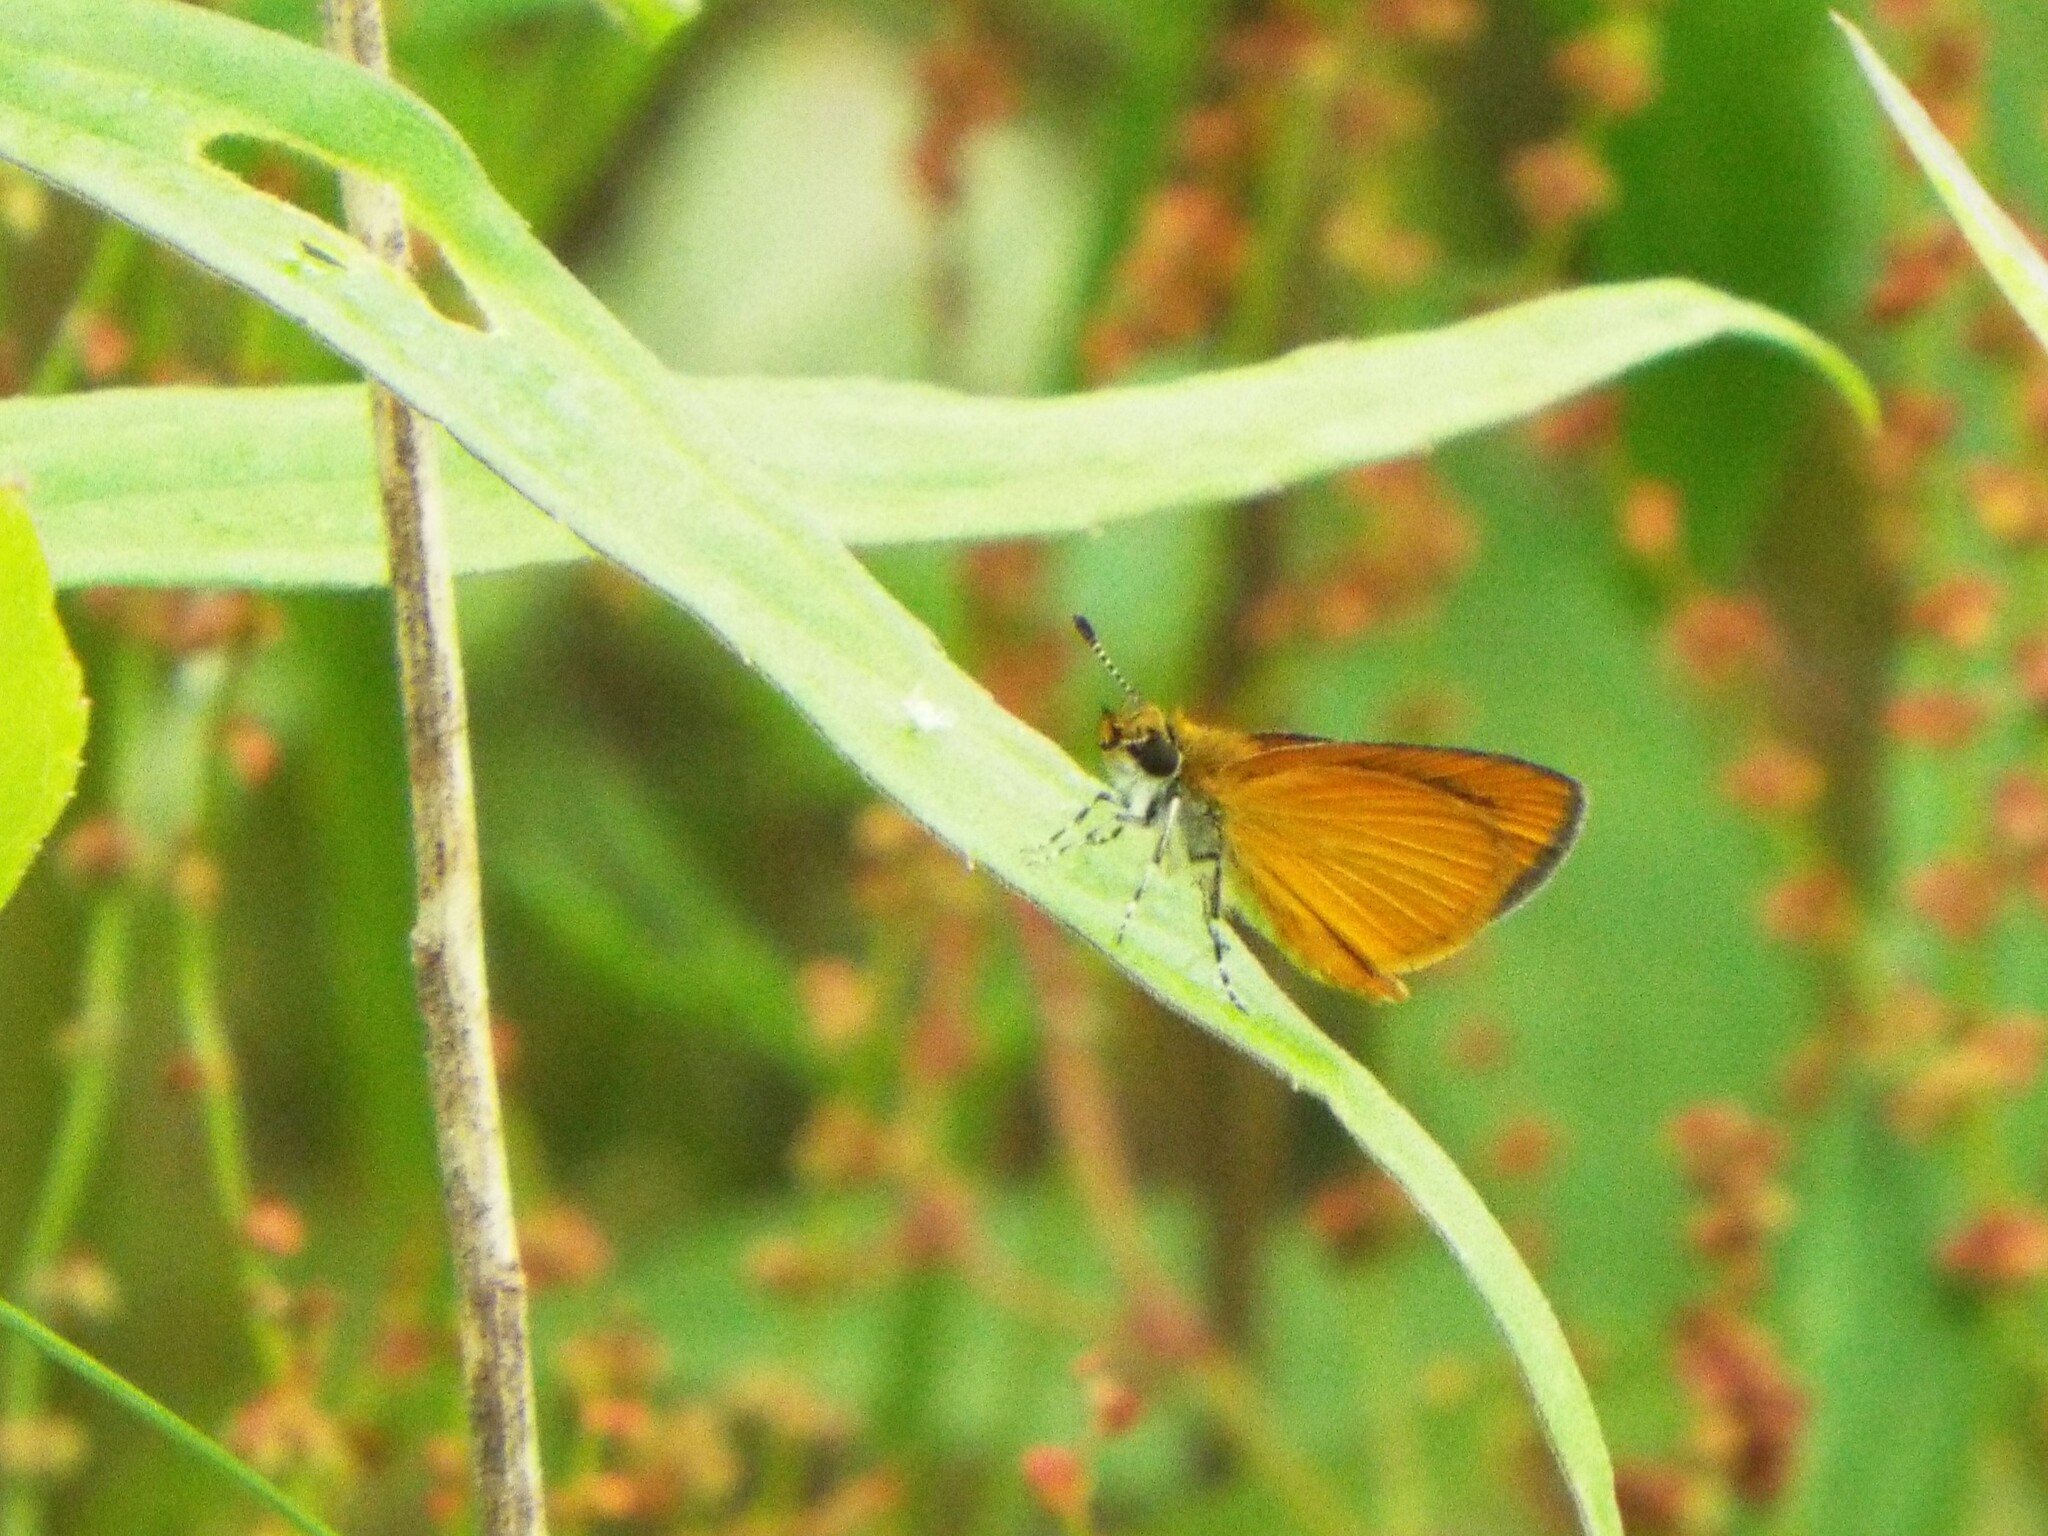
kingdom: Animalia
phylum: Arthropoda
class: Insecta
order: Lepidoptera
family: Hesperiidae
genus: Ancyloxypha
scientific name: Ancyloxypha numitor
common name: Least skipper
